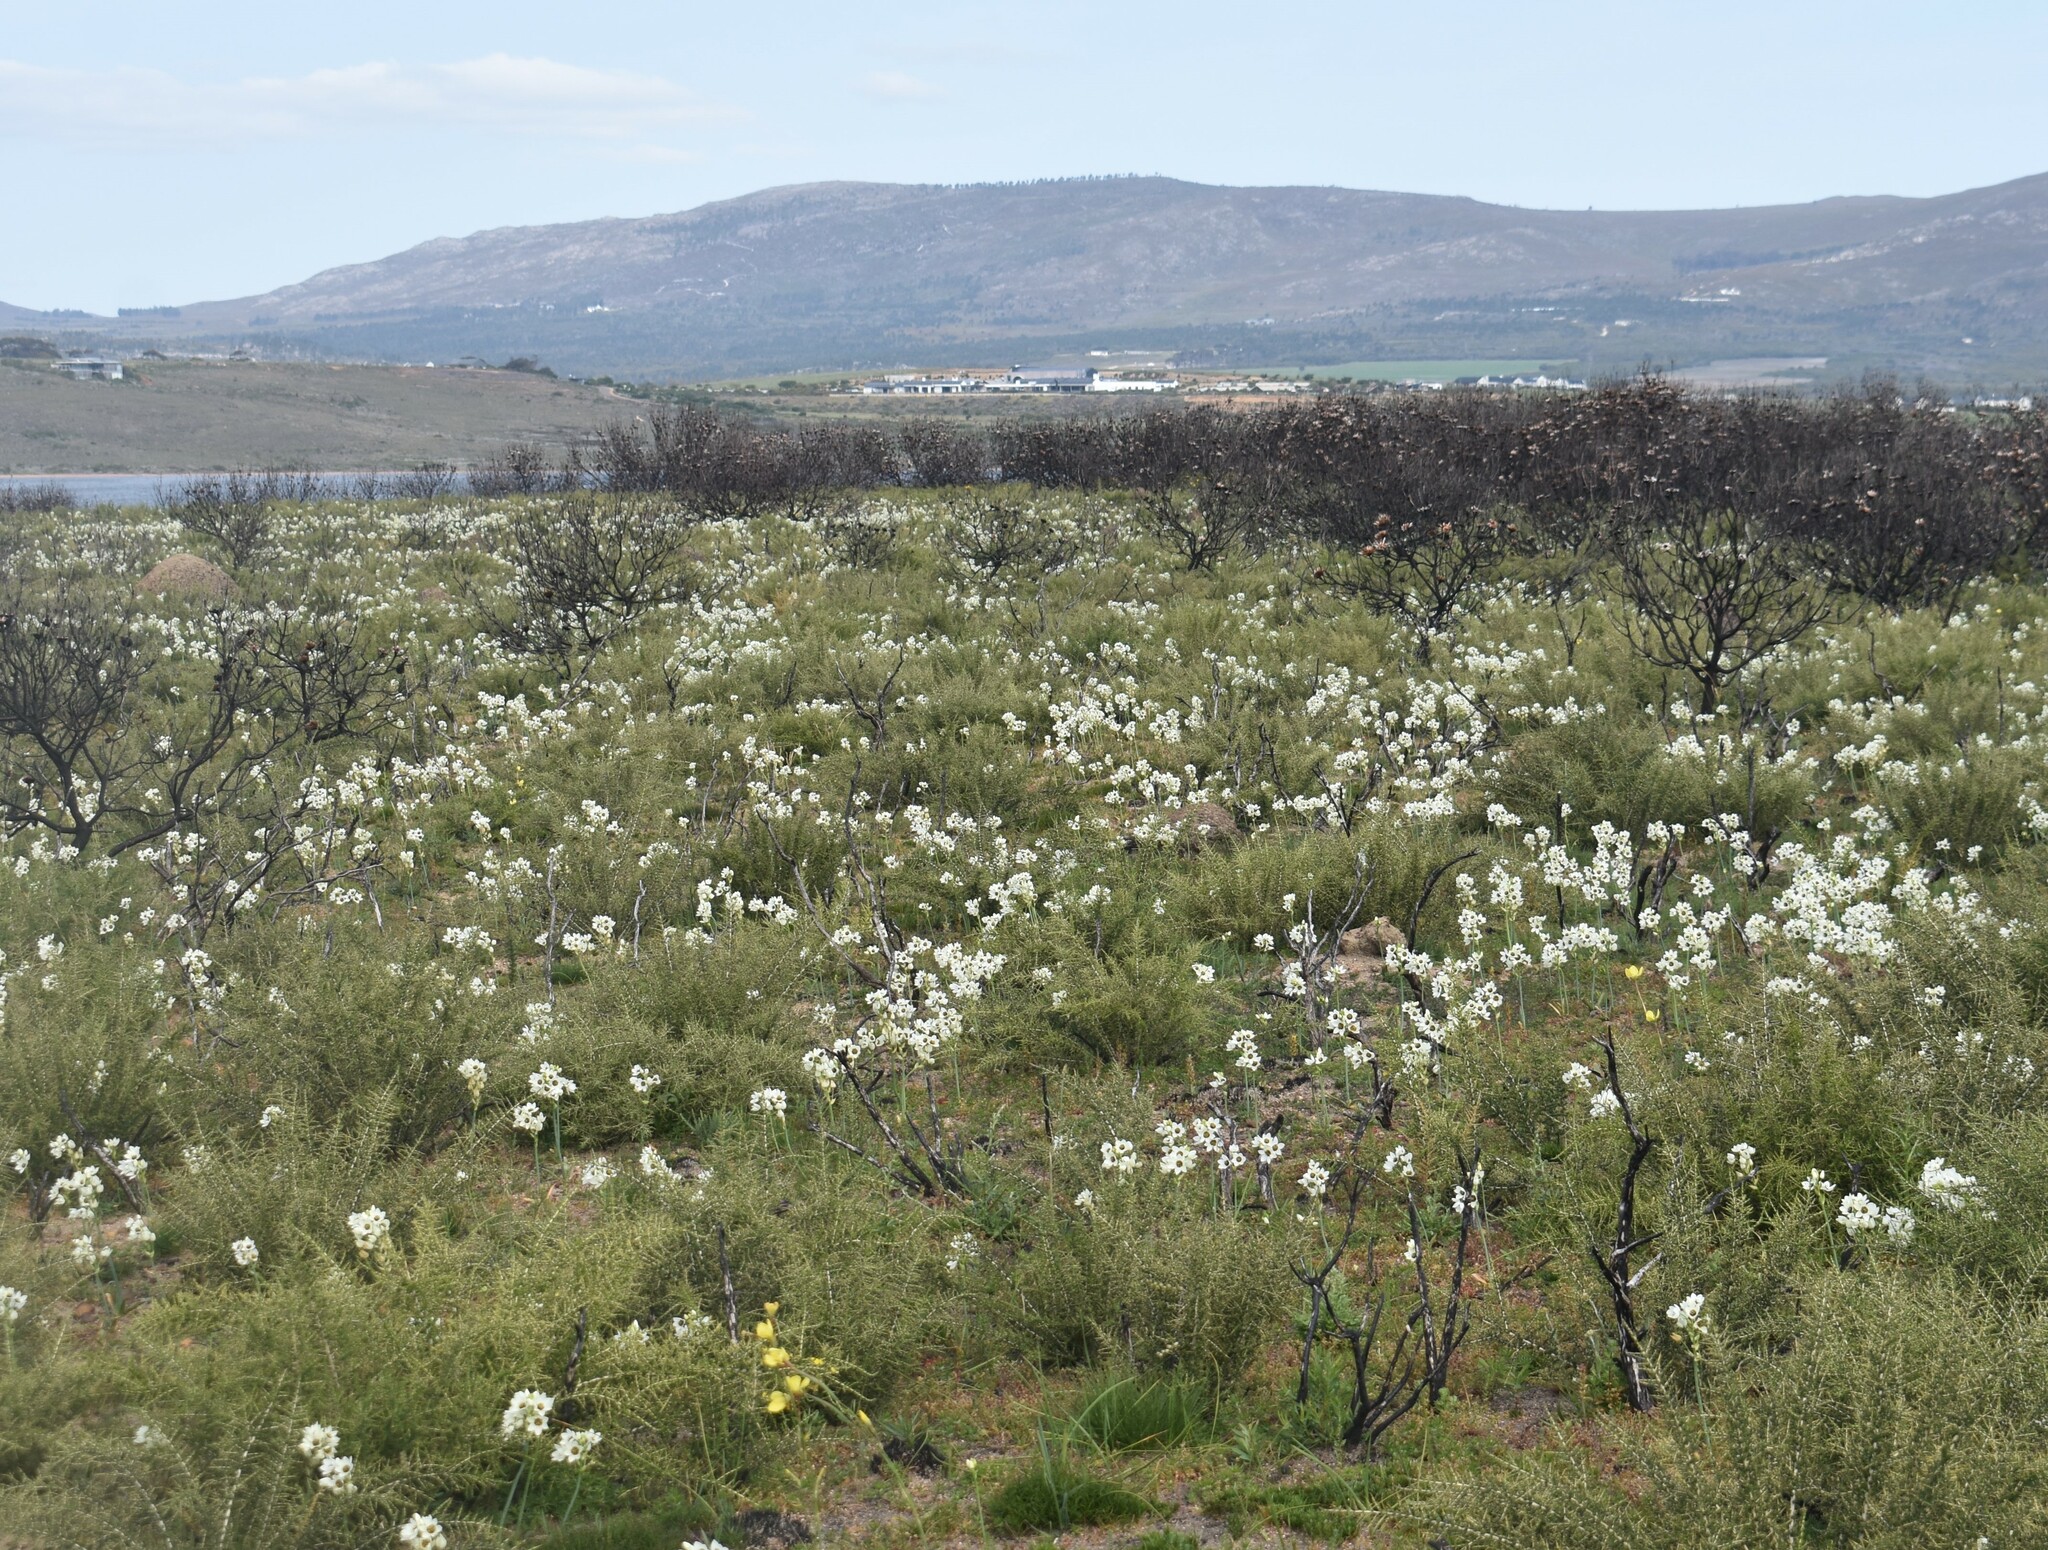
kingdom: Plantae
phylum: Tracheophyta
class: Liliopsida
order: Asparagales
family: Asparagaceae
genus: Ornithogalum
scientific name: Ornithogalum thyrsoides
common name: Chincherinchee
